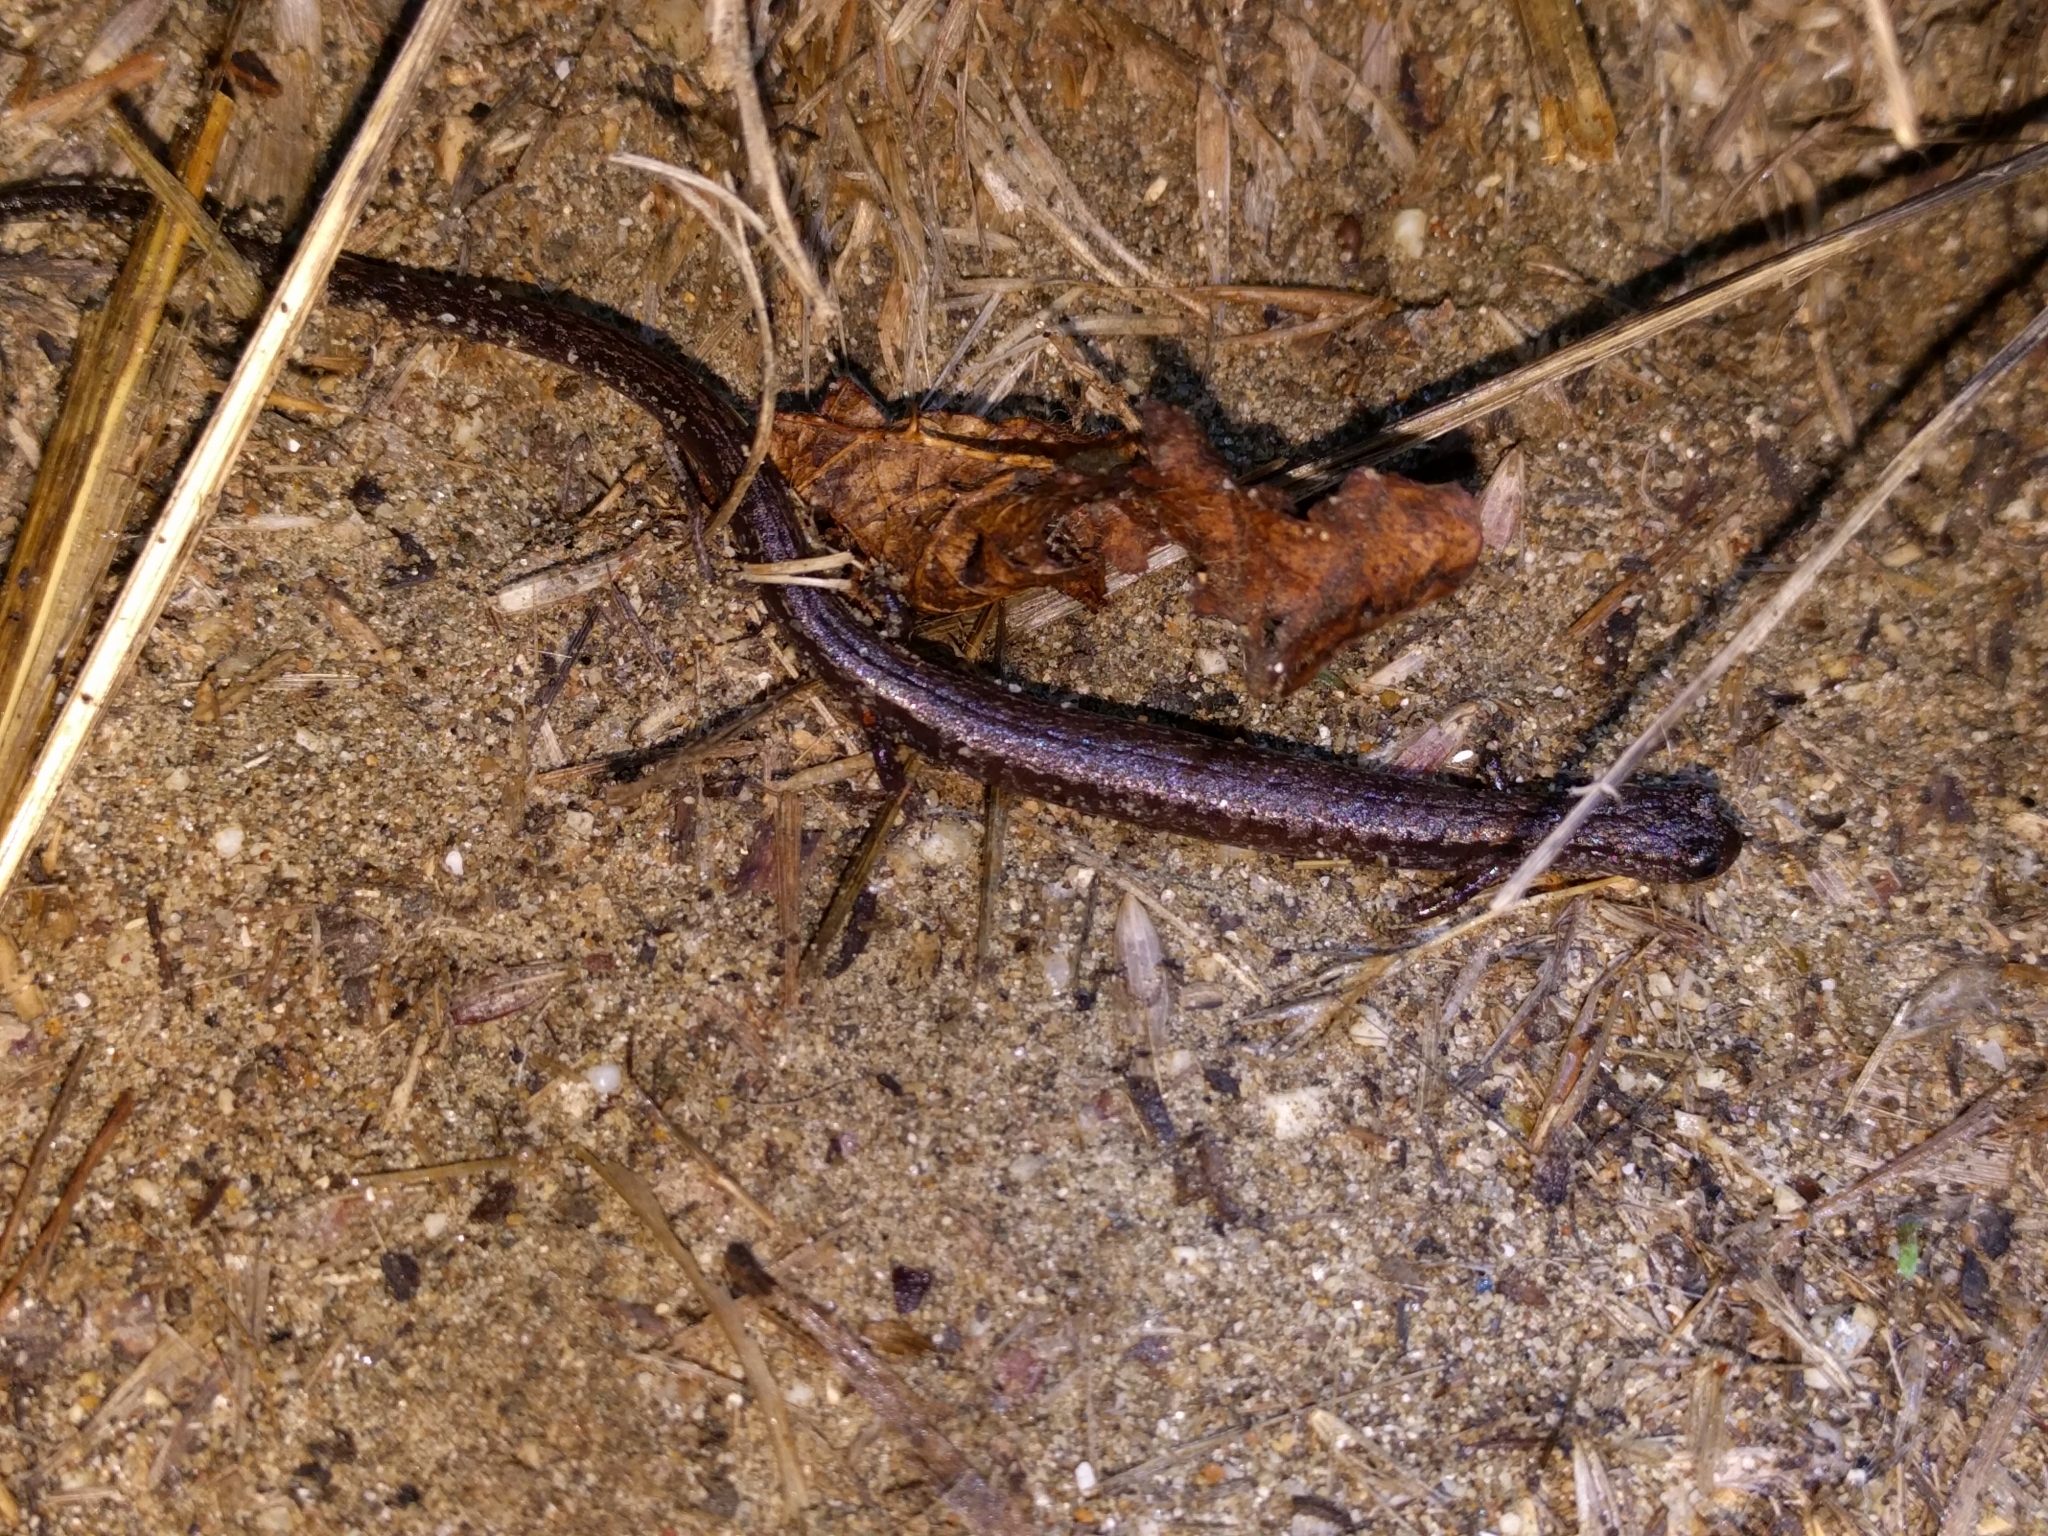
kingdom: Animalia
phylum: Chordata
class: Amphibia
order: Caudata
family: Plethodontidae
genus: Batrachoseps
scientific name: Batrachoseps attenuatus
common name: California slender salamander
